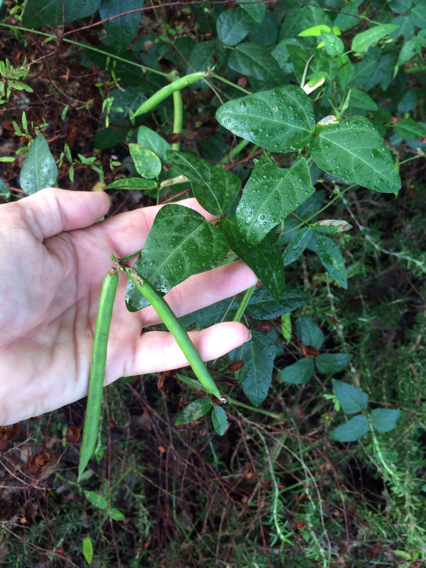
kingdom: Plantae
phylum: Tracheophyta
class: Magnoliopsida
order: Fabales
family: Fabaceae
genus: Strophostyles
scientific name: Strophostyles helvola
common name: Trailing wild bean
